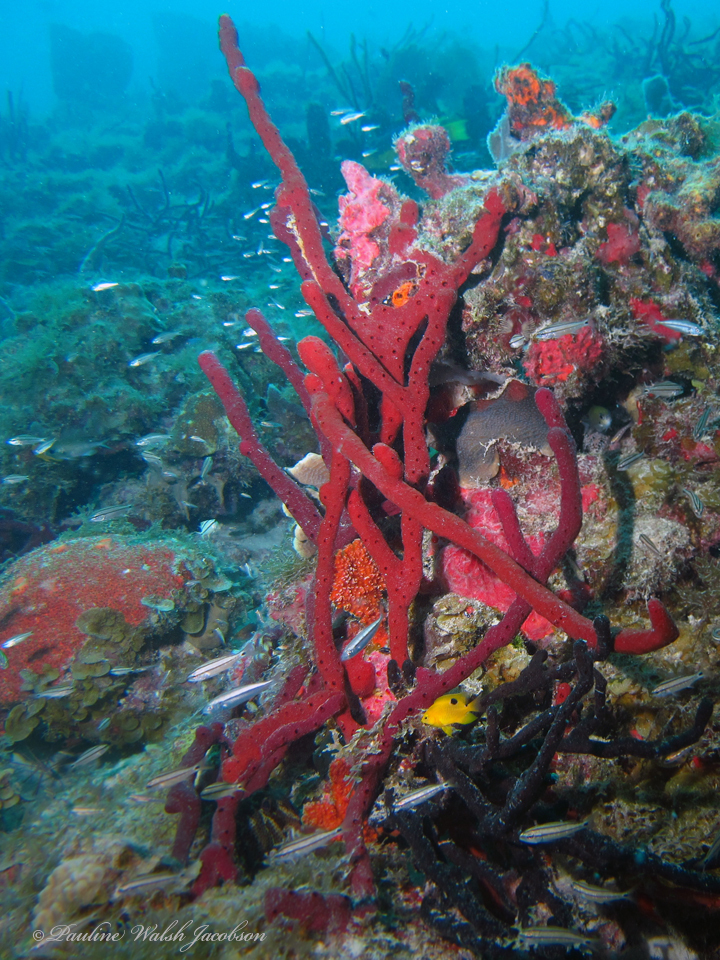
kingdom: Animalia
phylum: Porifera
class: Demospongiae
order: Haplosclerida
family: Niphatidae
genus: Amphimedon
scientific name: Amphimedon compressa
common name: Red sponge
